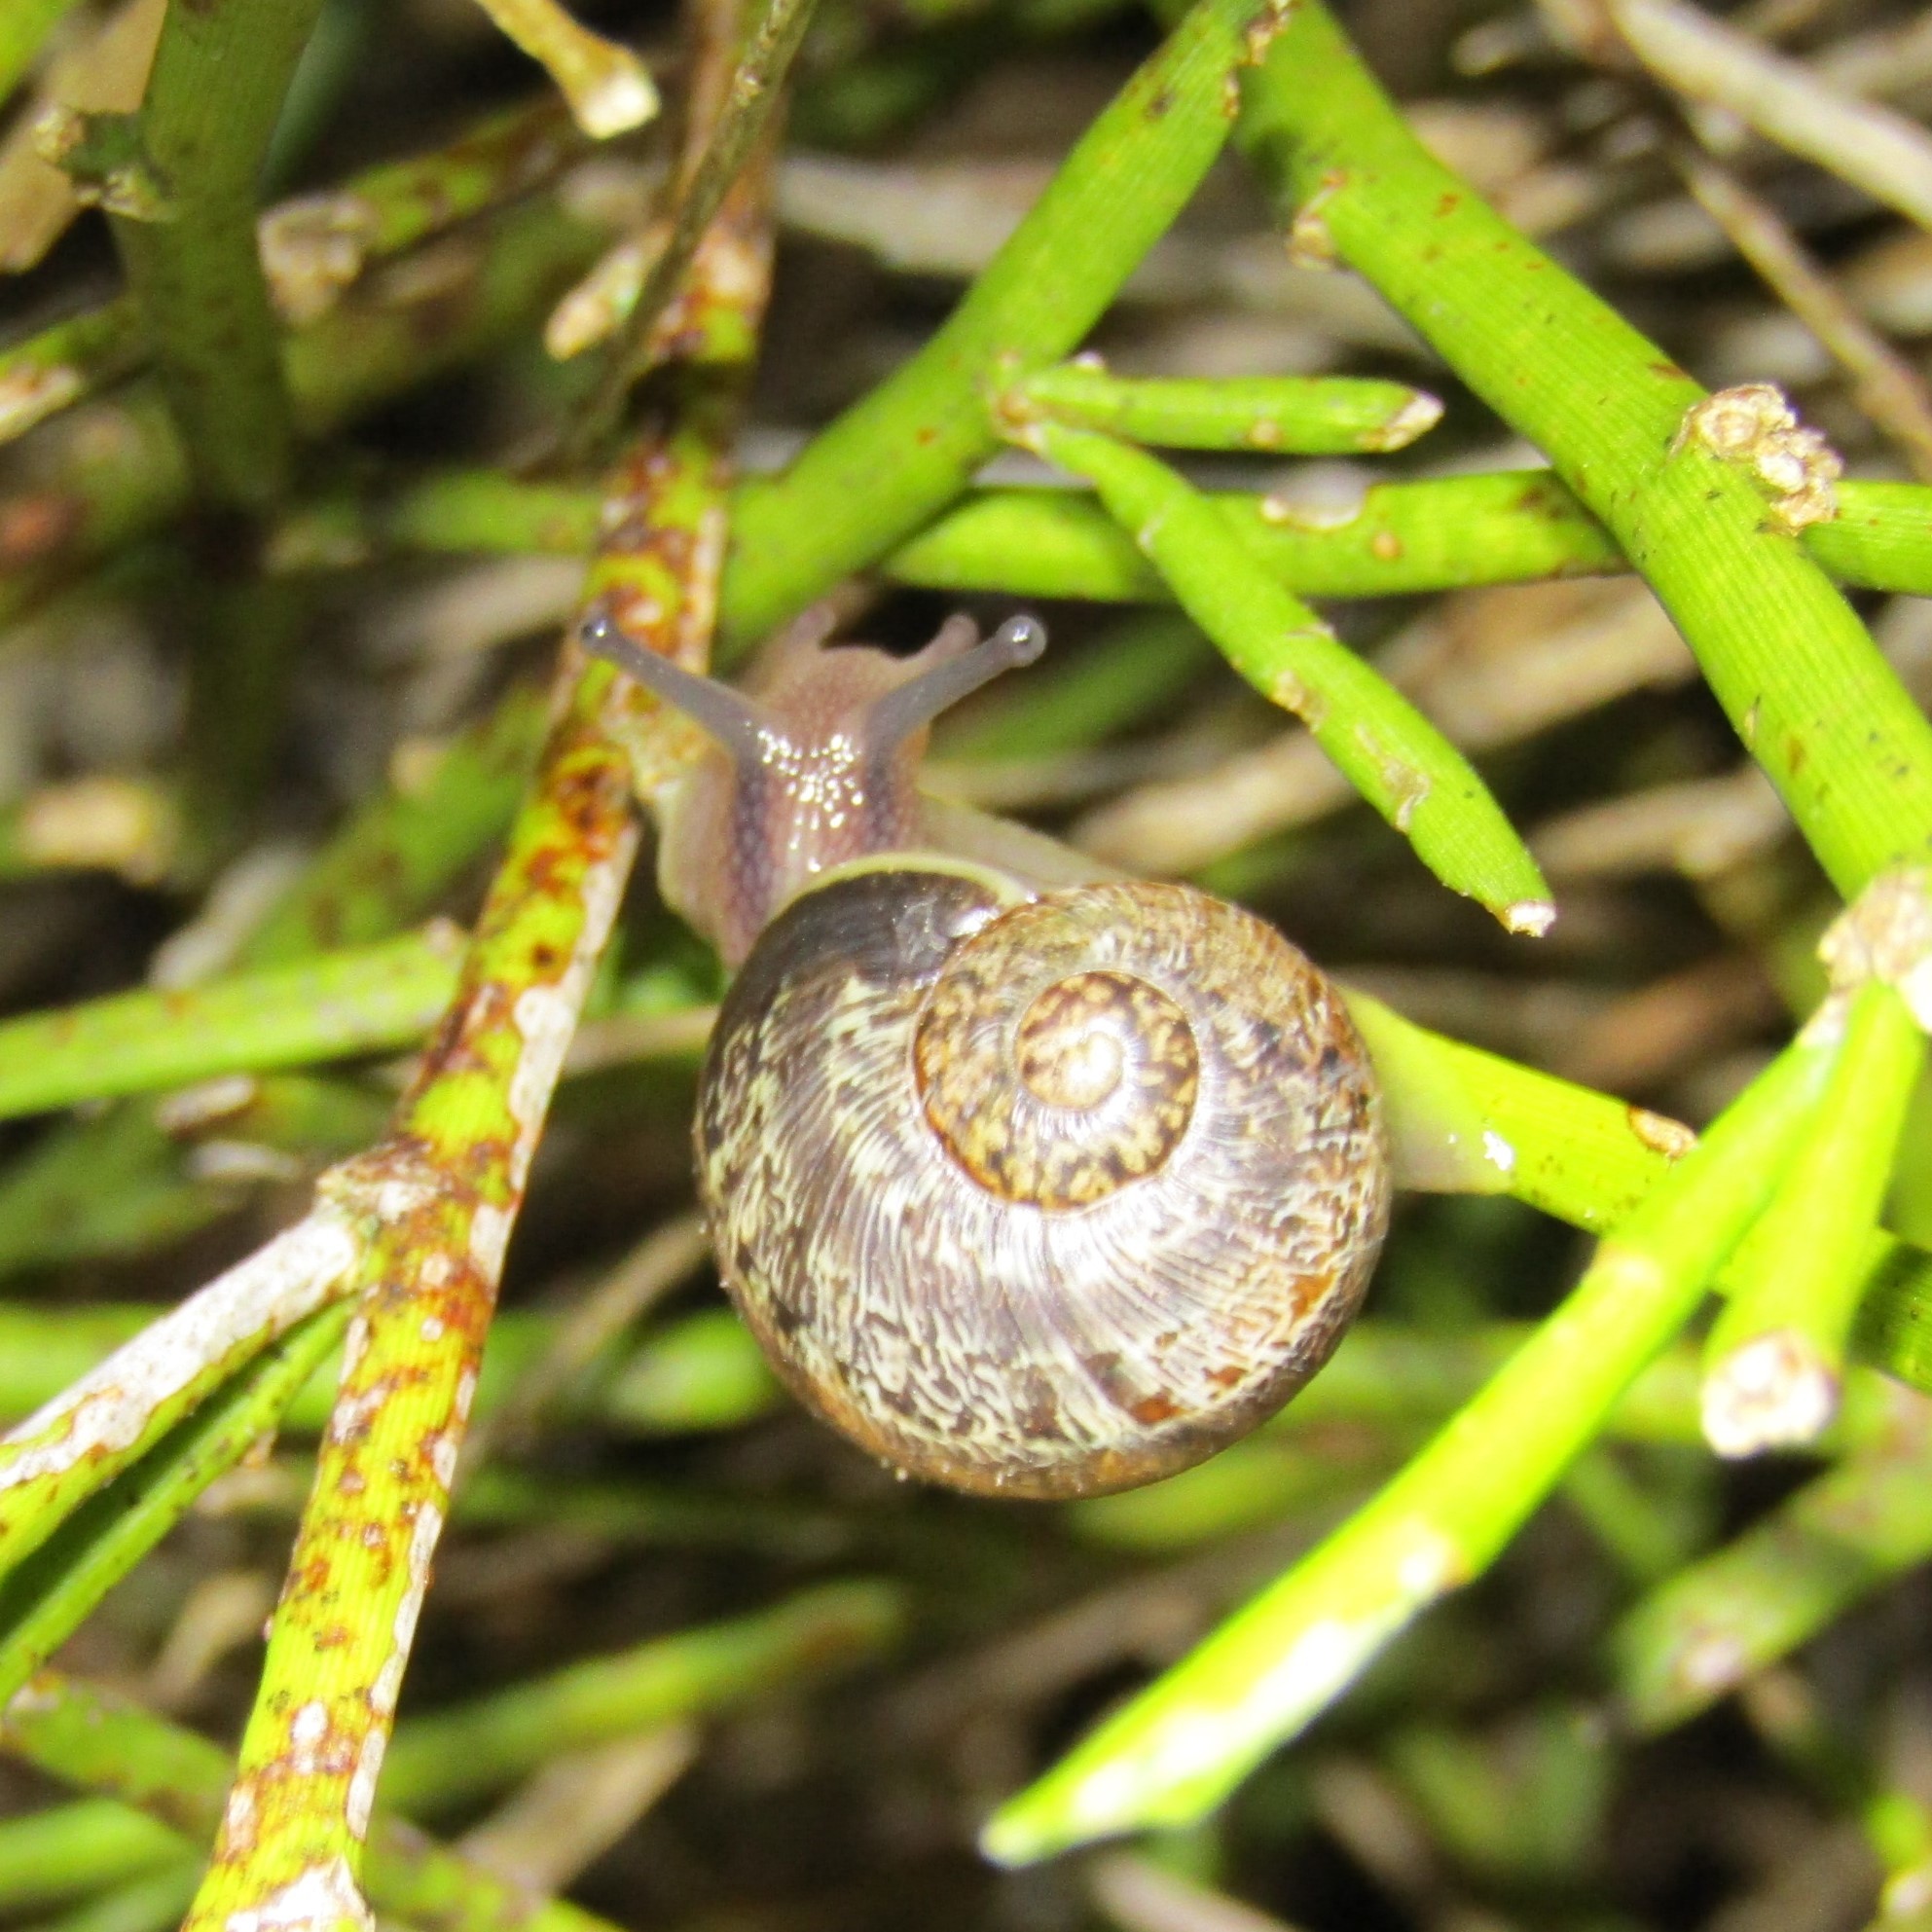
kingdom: Animalia
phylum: Mollusca
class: Gastropoda
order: Stylommatophora
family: Helicidae
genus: Cornu
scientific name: Cornu aspersum
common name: Brown garden snail
